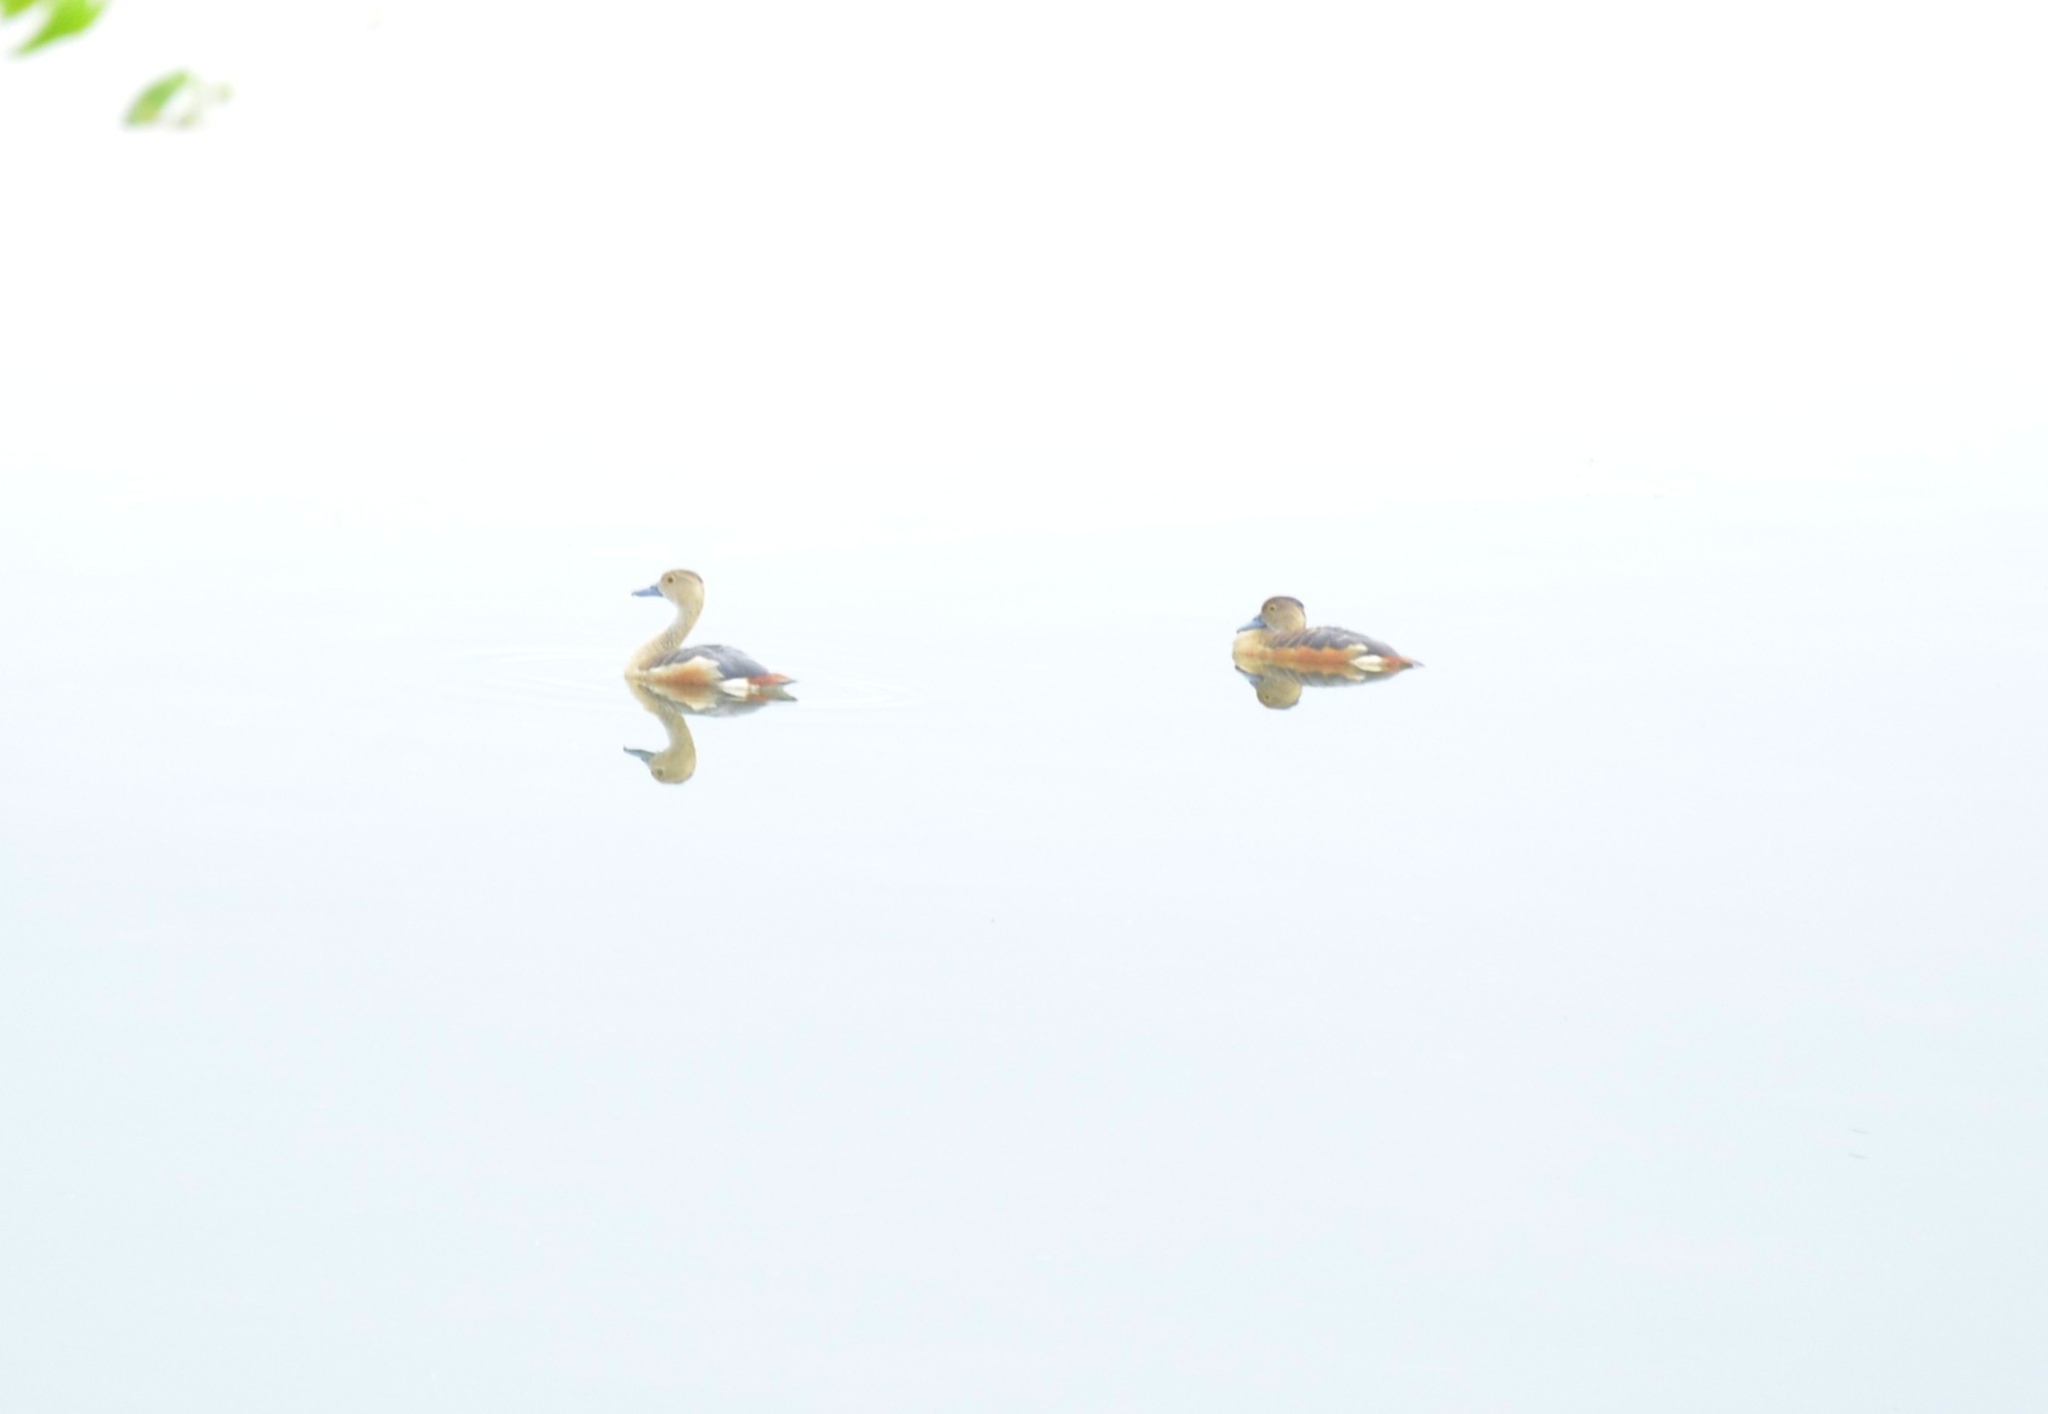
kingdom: Animalia
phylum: Chordata
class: Aves
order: Anseriformes
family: Anatidae
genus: Dendrocygna
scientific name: Dendrocygna javanica
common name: Lesser whistling-duck
